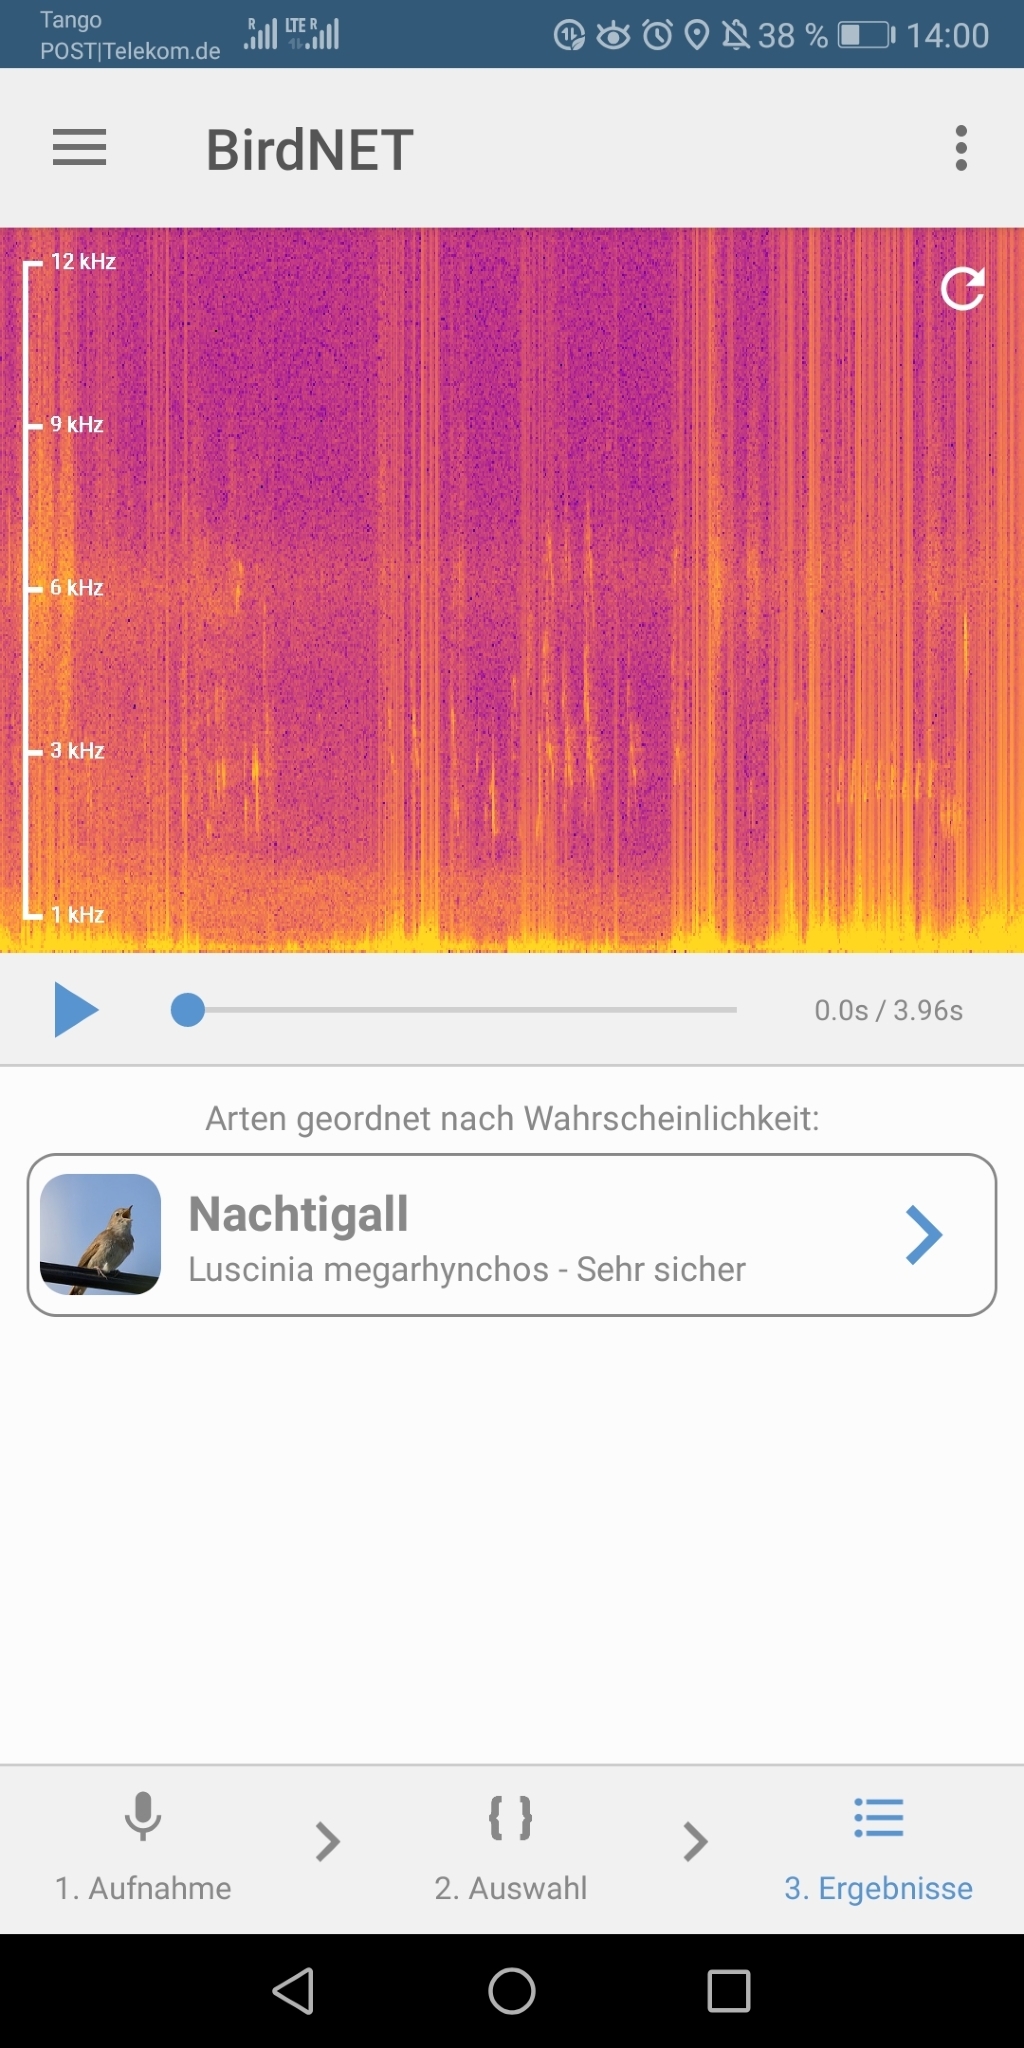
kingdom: Animalia
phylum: Chordata
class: Aves
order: Passeriformes
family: Muscicapidae
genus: Luscinia
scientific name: Luscinia megarhynchos
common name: Common nightingale
